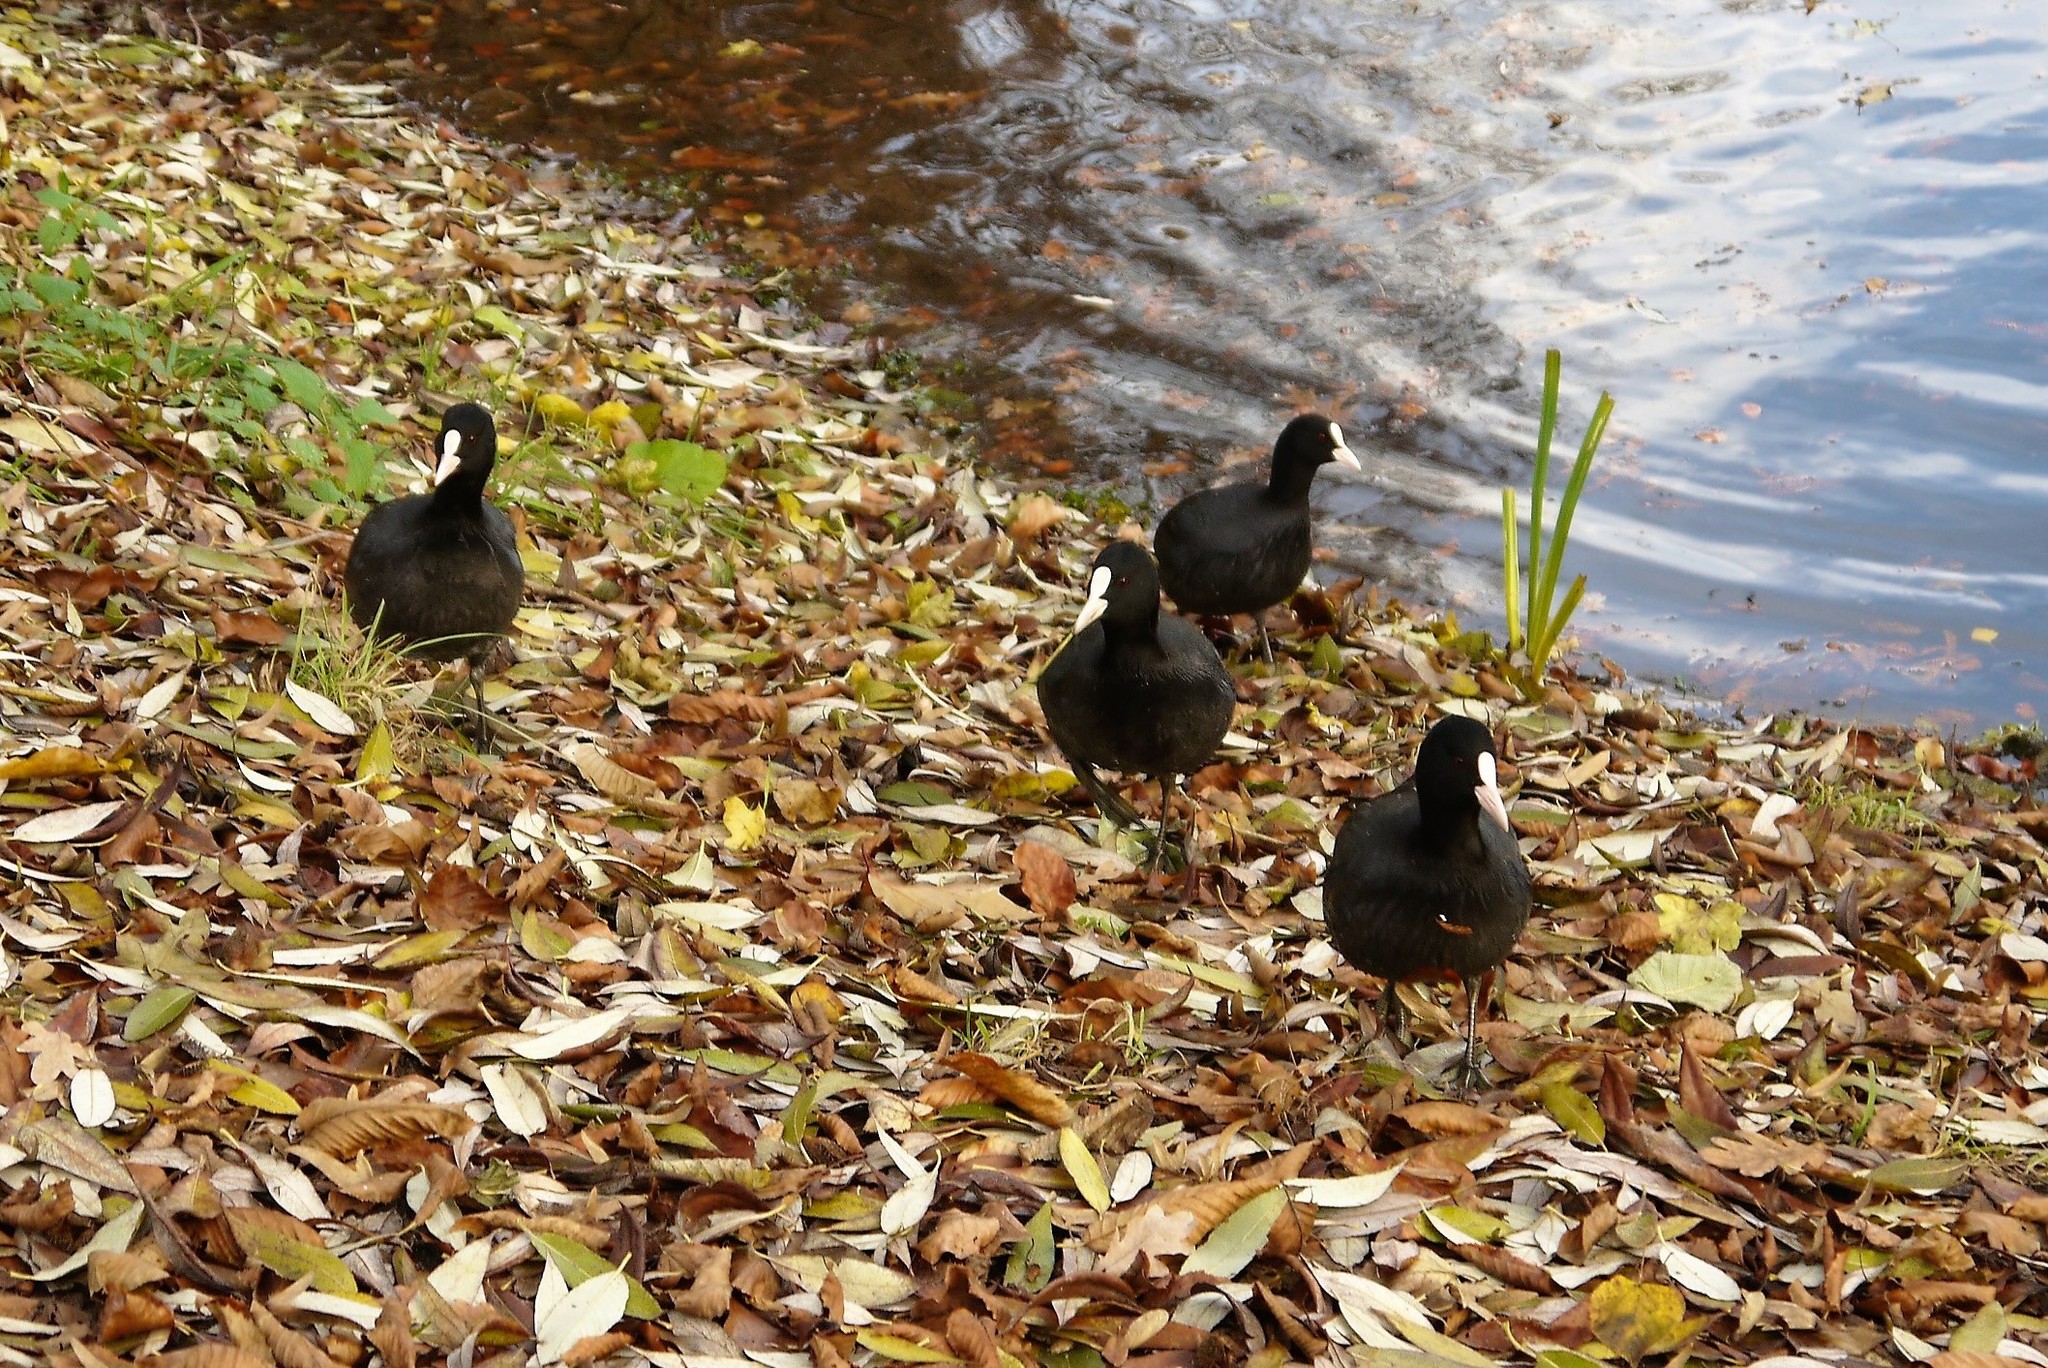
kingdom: Animalia
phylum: Chordata
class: Aves
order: Gruiformes
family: Rallidae
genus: Fulica
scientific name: Fulica atra
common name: Eurasian coot
